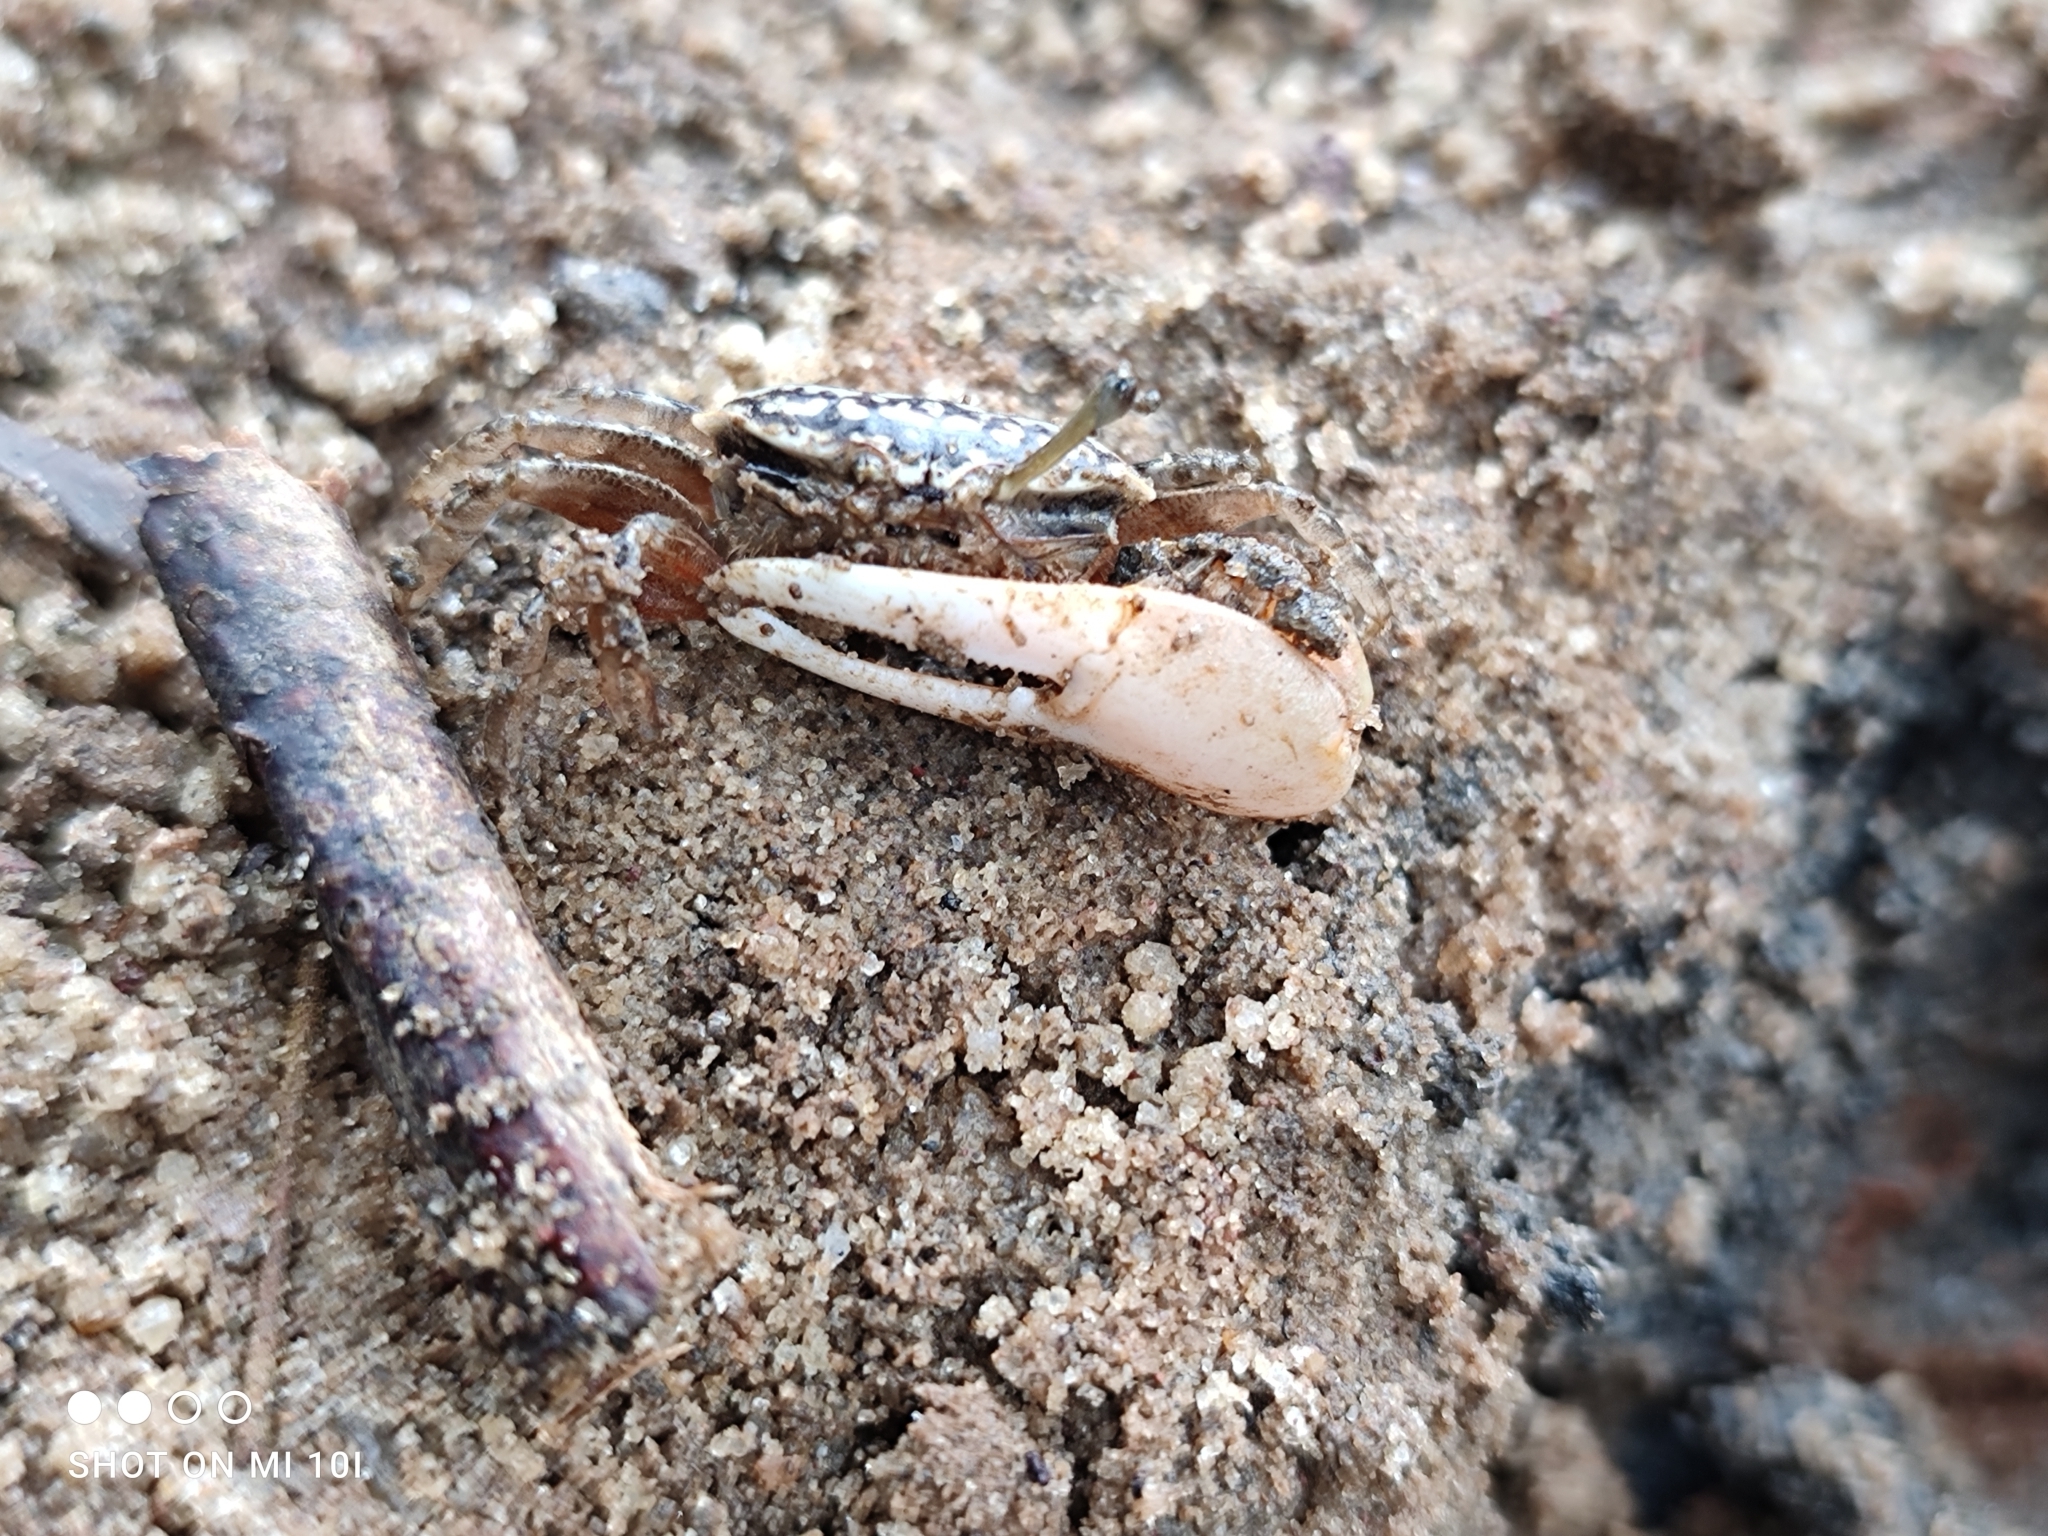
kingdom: Animalia
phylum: Arthropoda
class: Malacostraca
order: Decapoda
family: Ocypodidae
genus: Austruca
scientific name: Austruca annulipes
